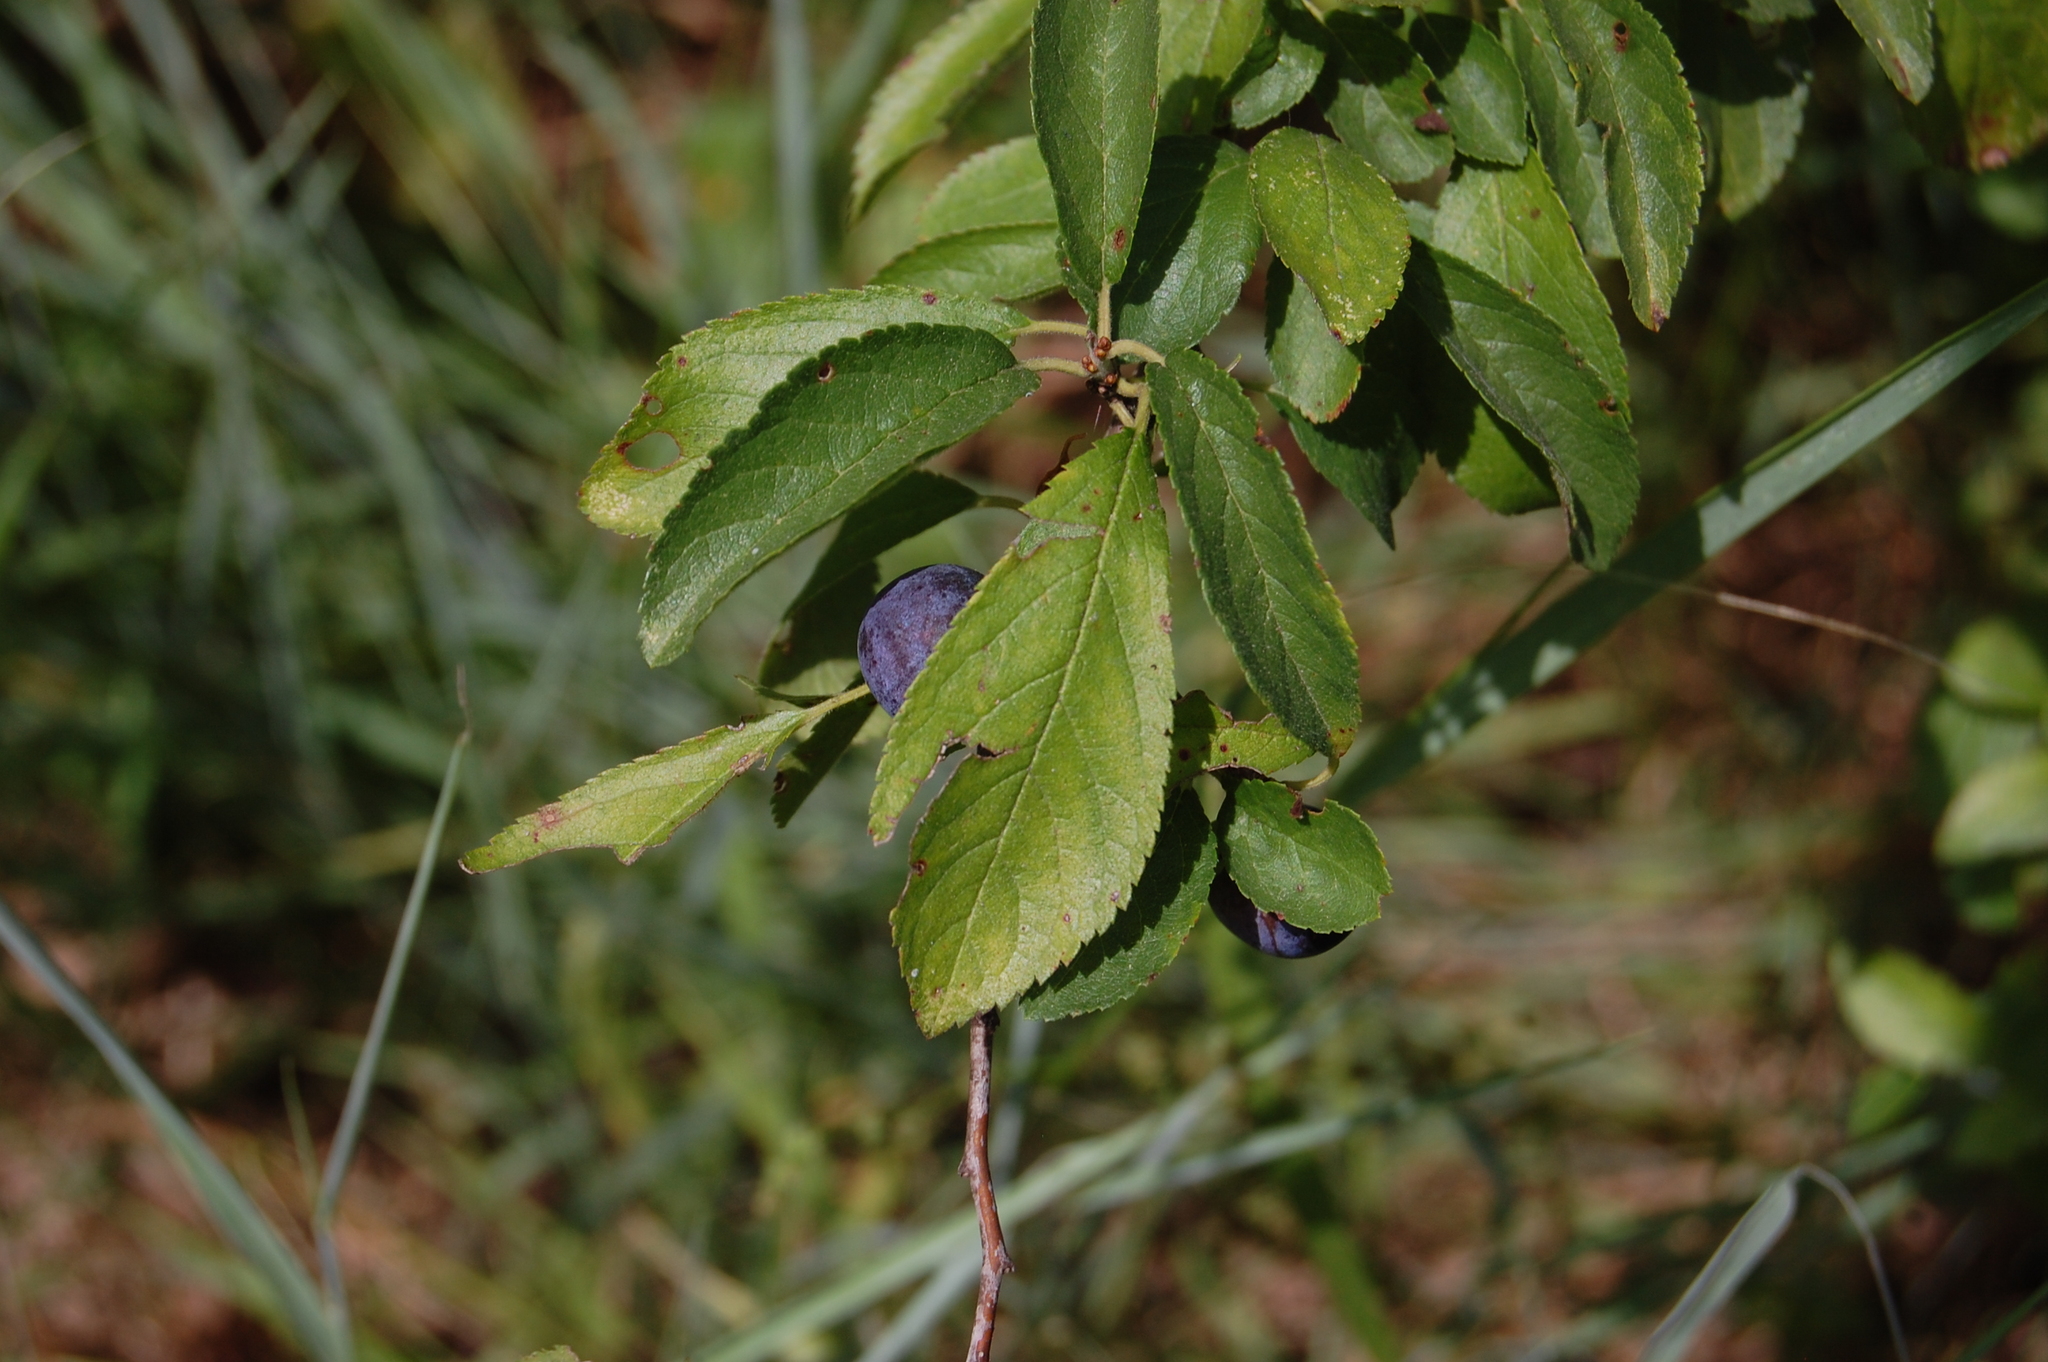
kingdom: Plantae
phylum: Tracheophyta
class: Magnoliopsida
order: Rosales
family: Rosaceae
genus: Prunus
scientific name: Prunus spinosa
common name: Blackthorn
